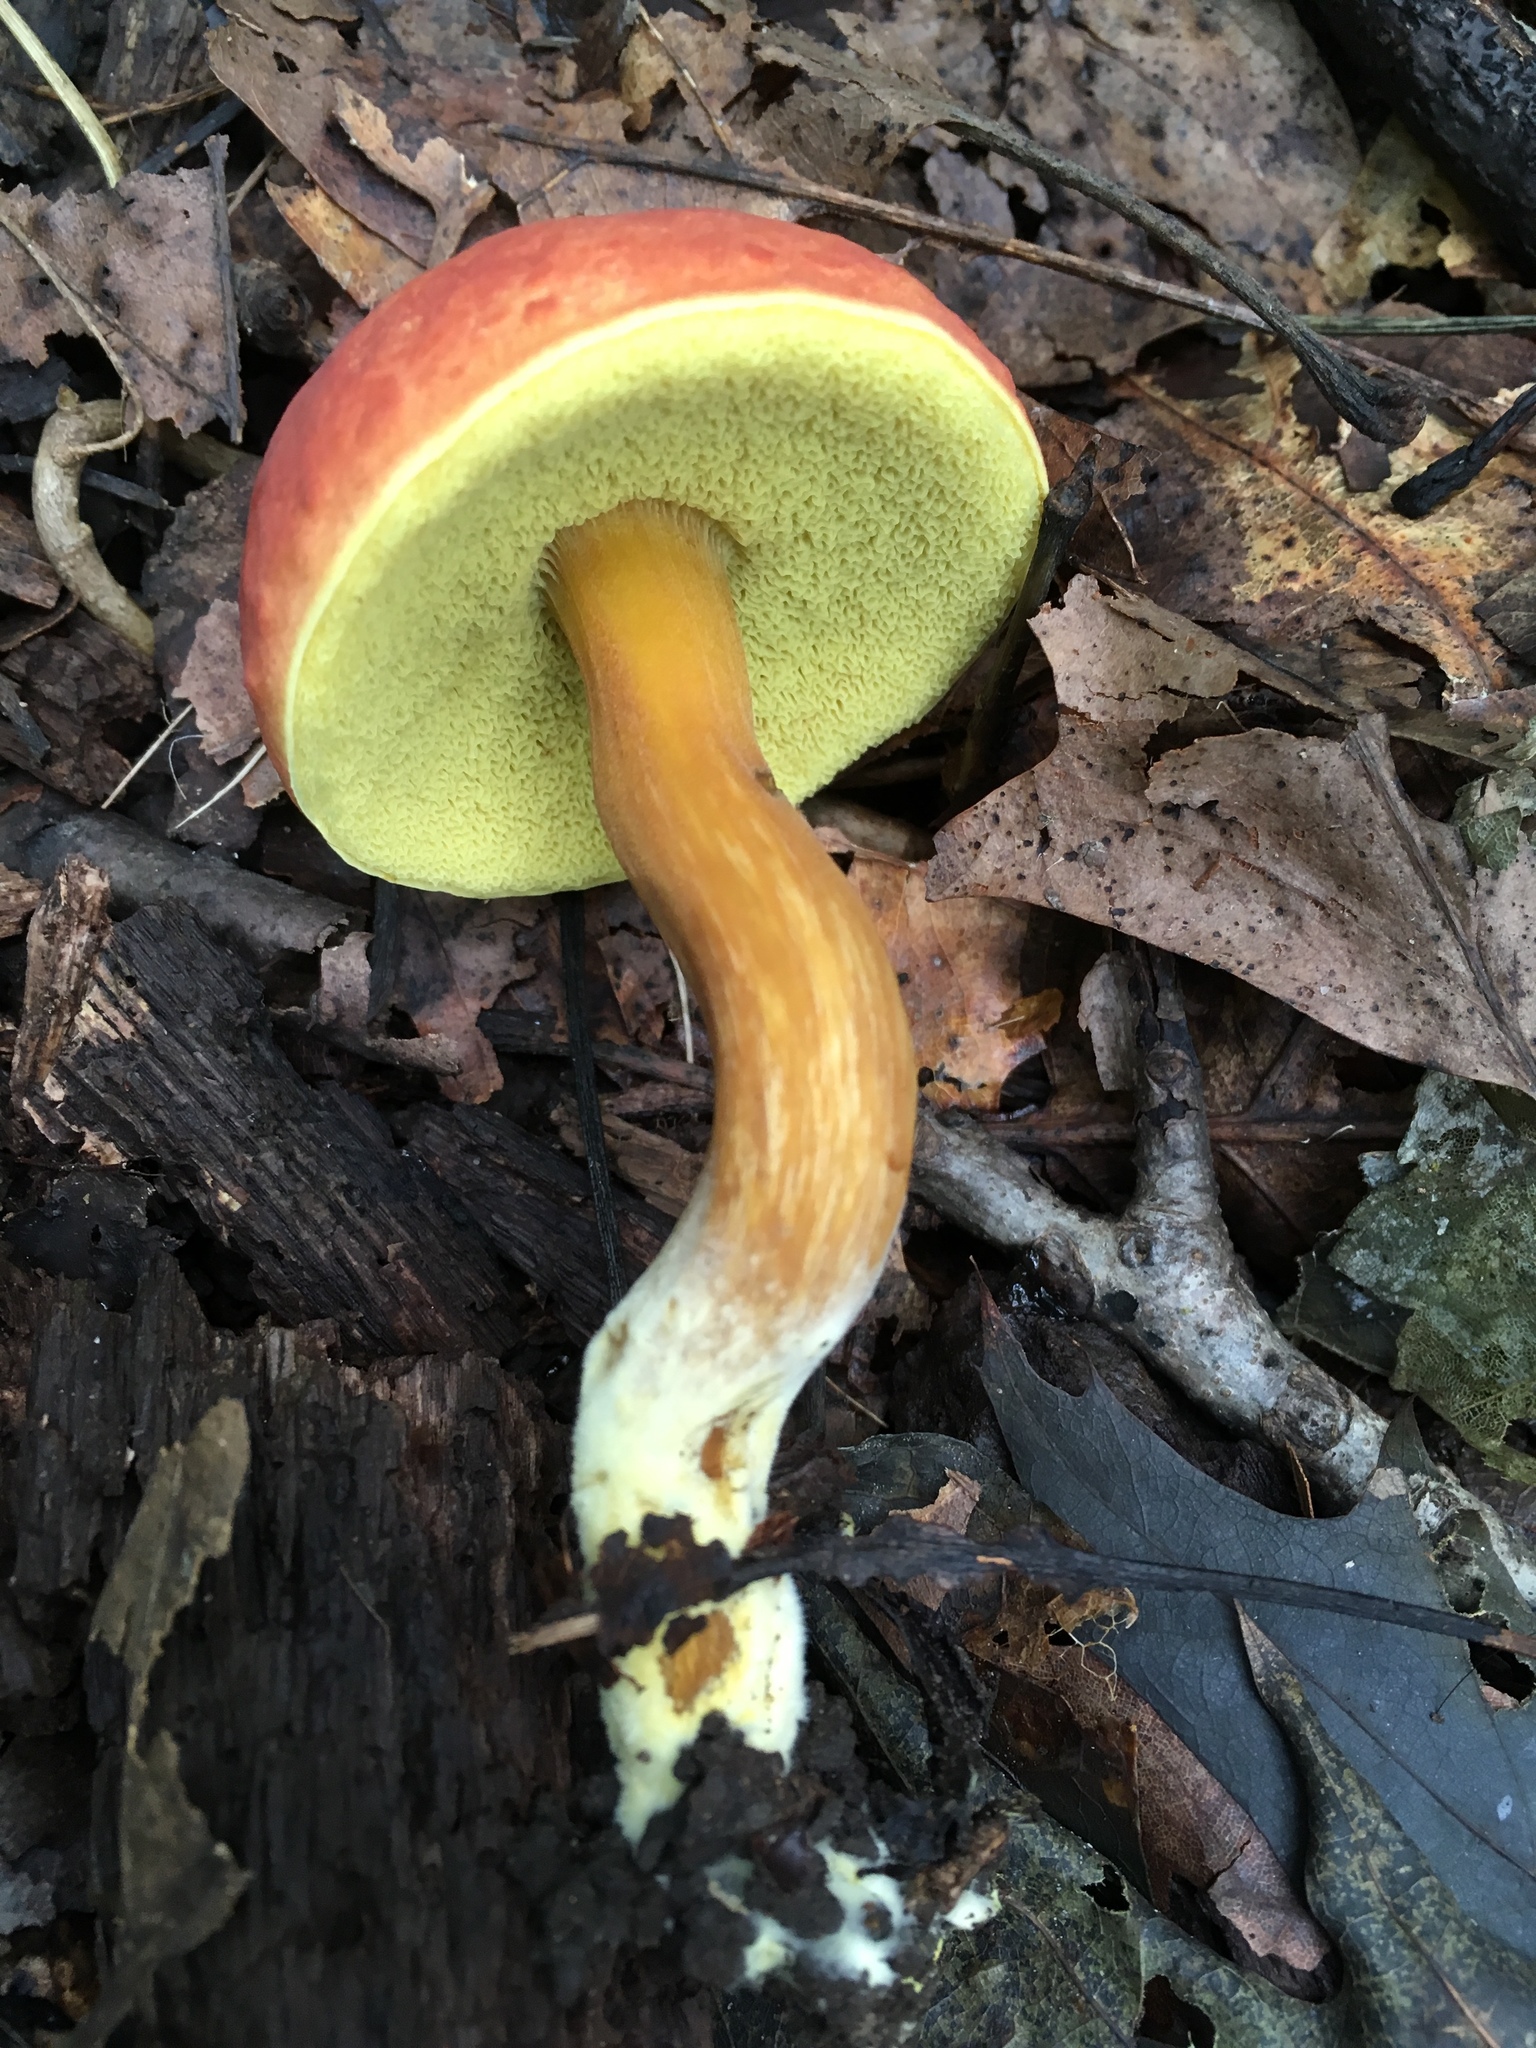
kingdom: Fungi
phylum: Basidiomycota
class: Agaricomycetes
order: Boletales
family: Boletaceae
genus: Boletus
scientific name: Boletus subfraternus
